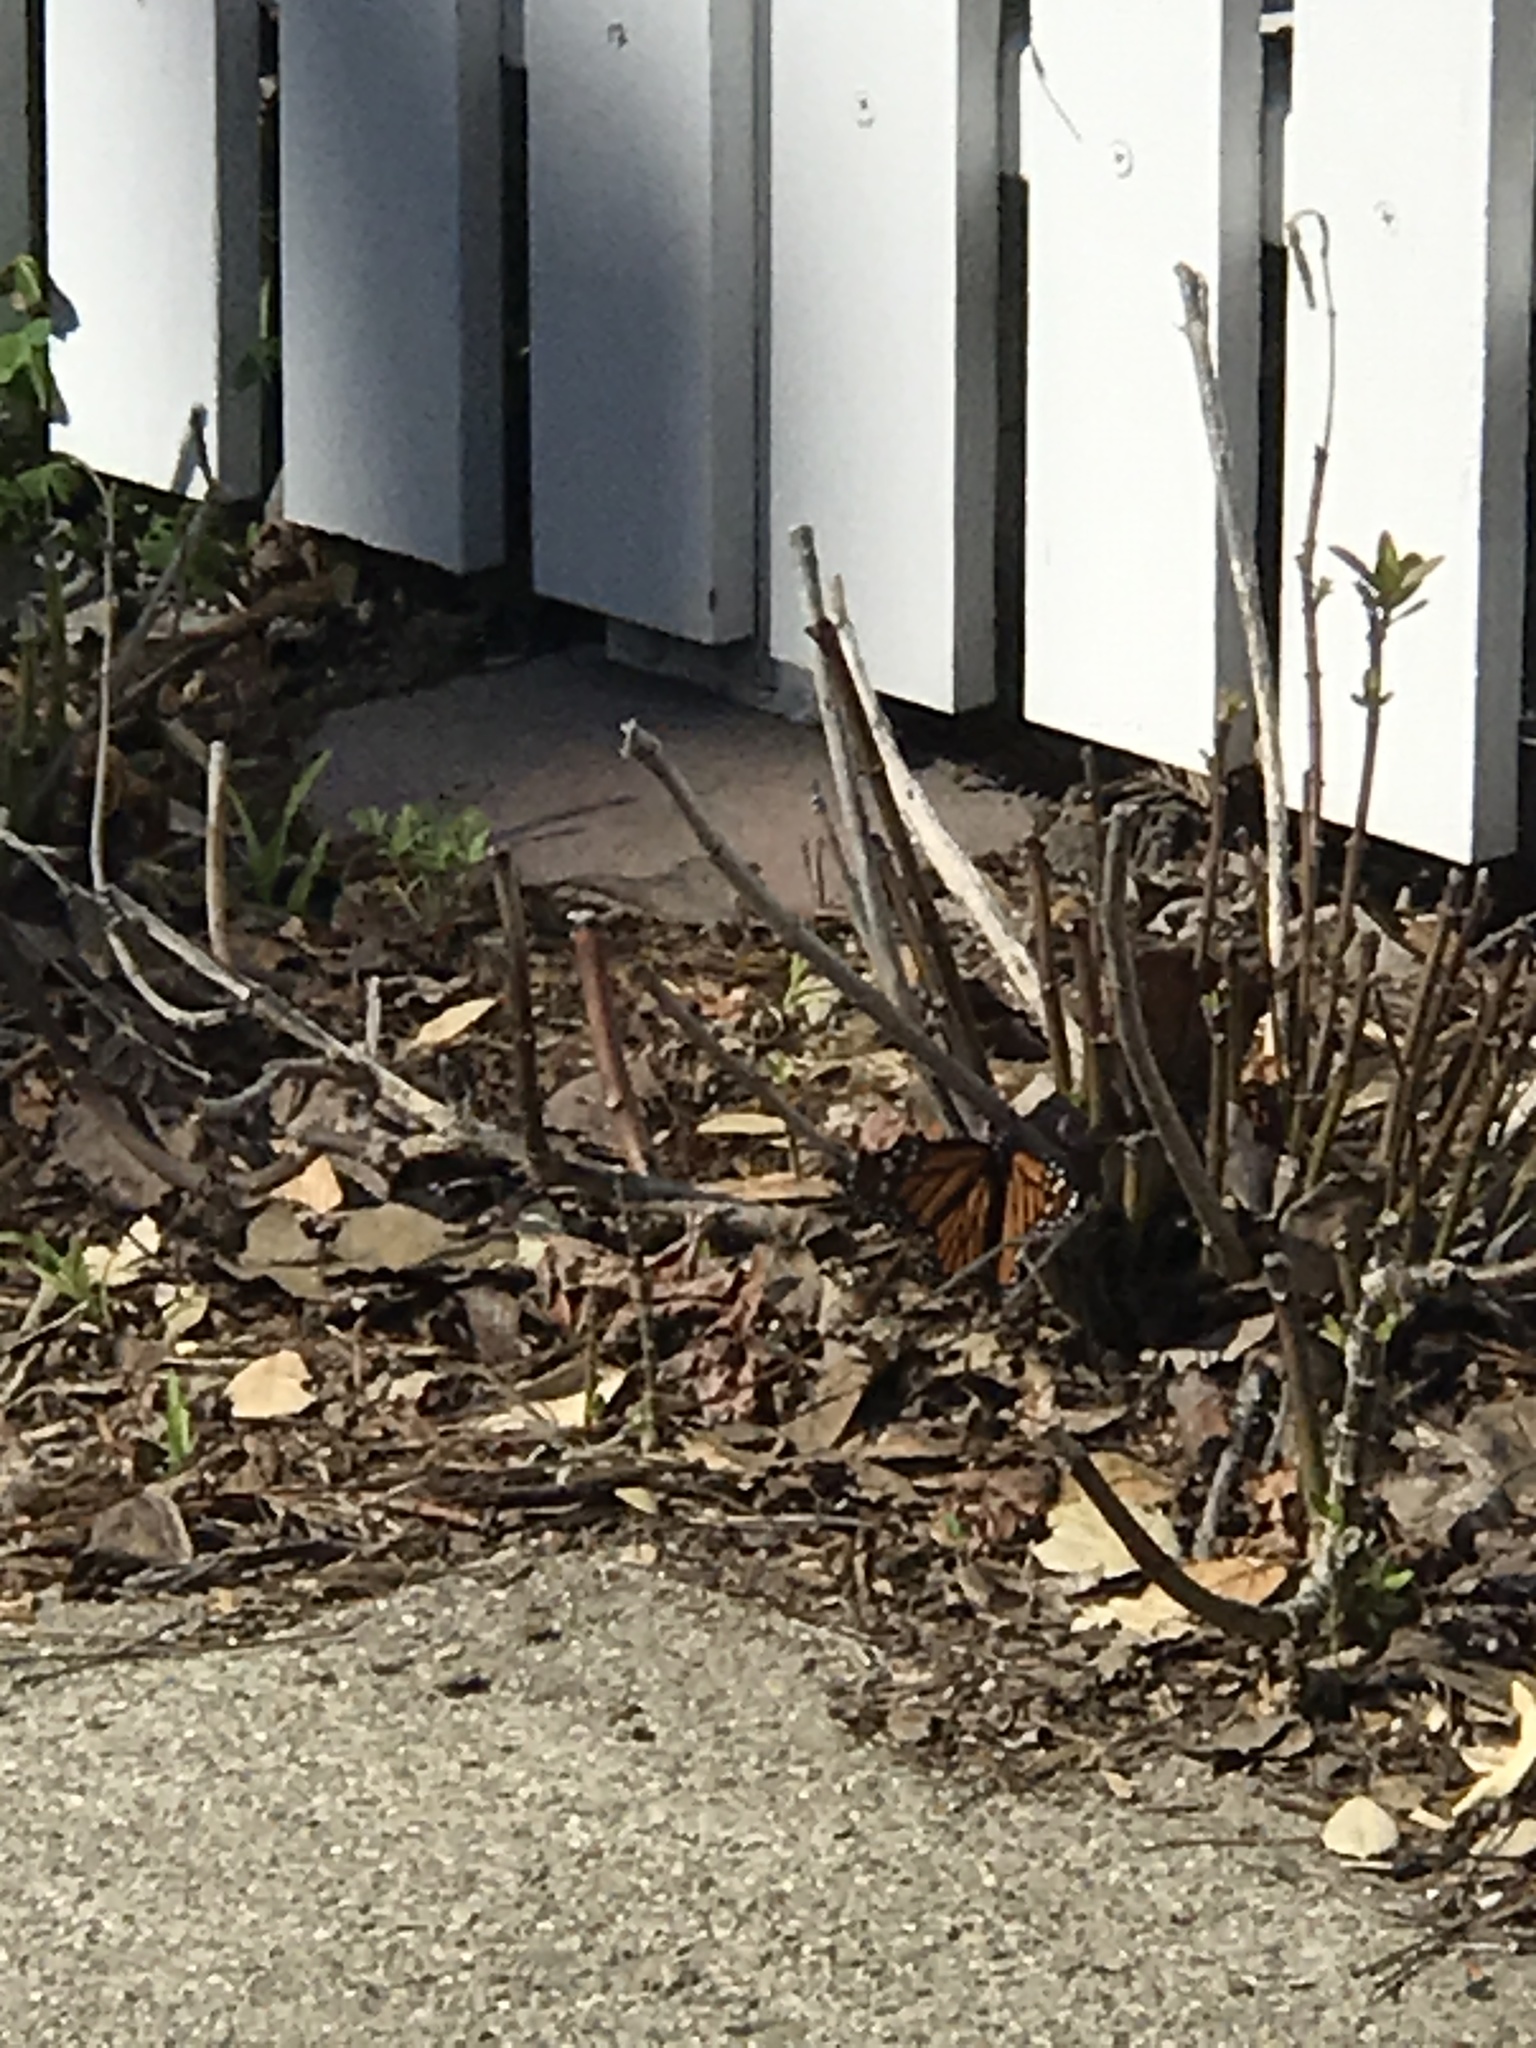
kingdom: Animalia
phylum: Arthropoda
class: Insecta
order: Lepidoptera
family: Nymphalidae
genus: Danaus
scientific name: Danaus plexippus
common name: Monarch
